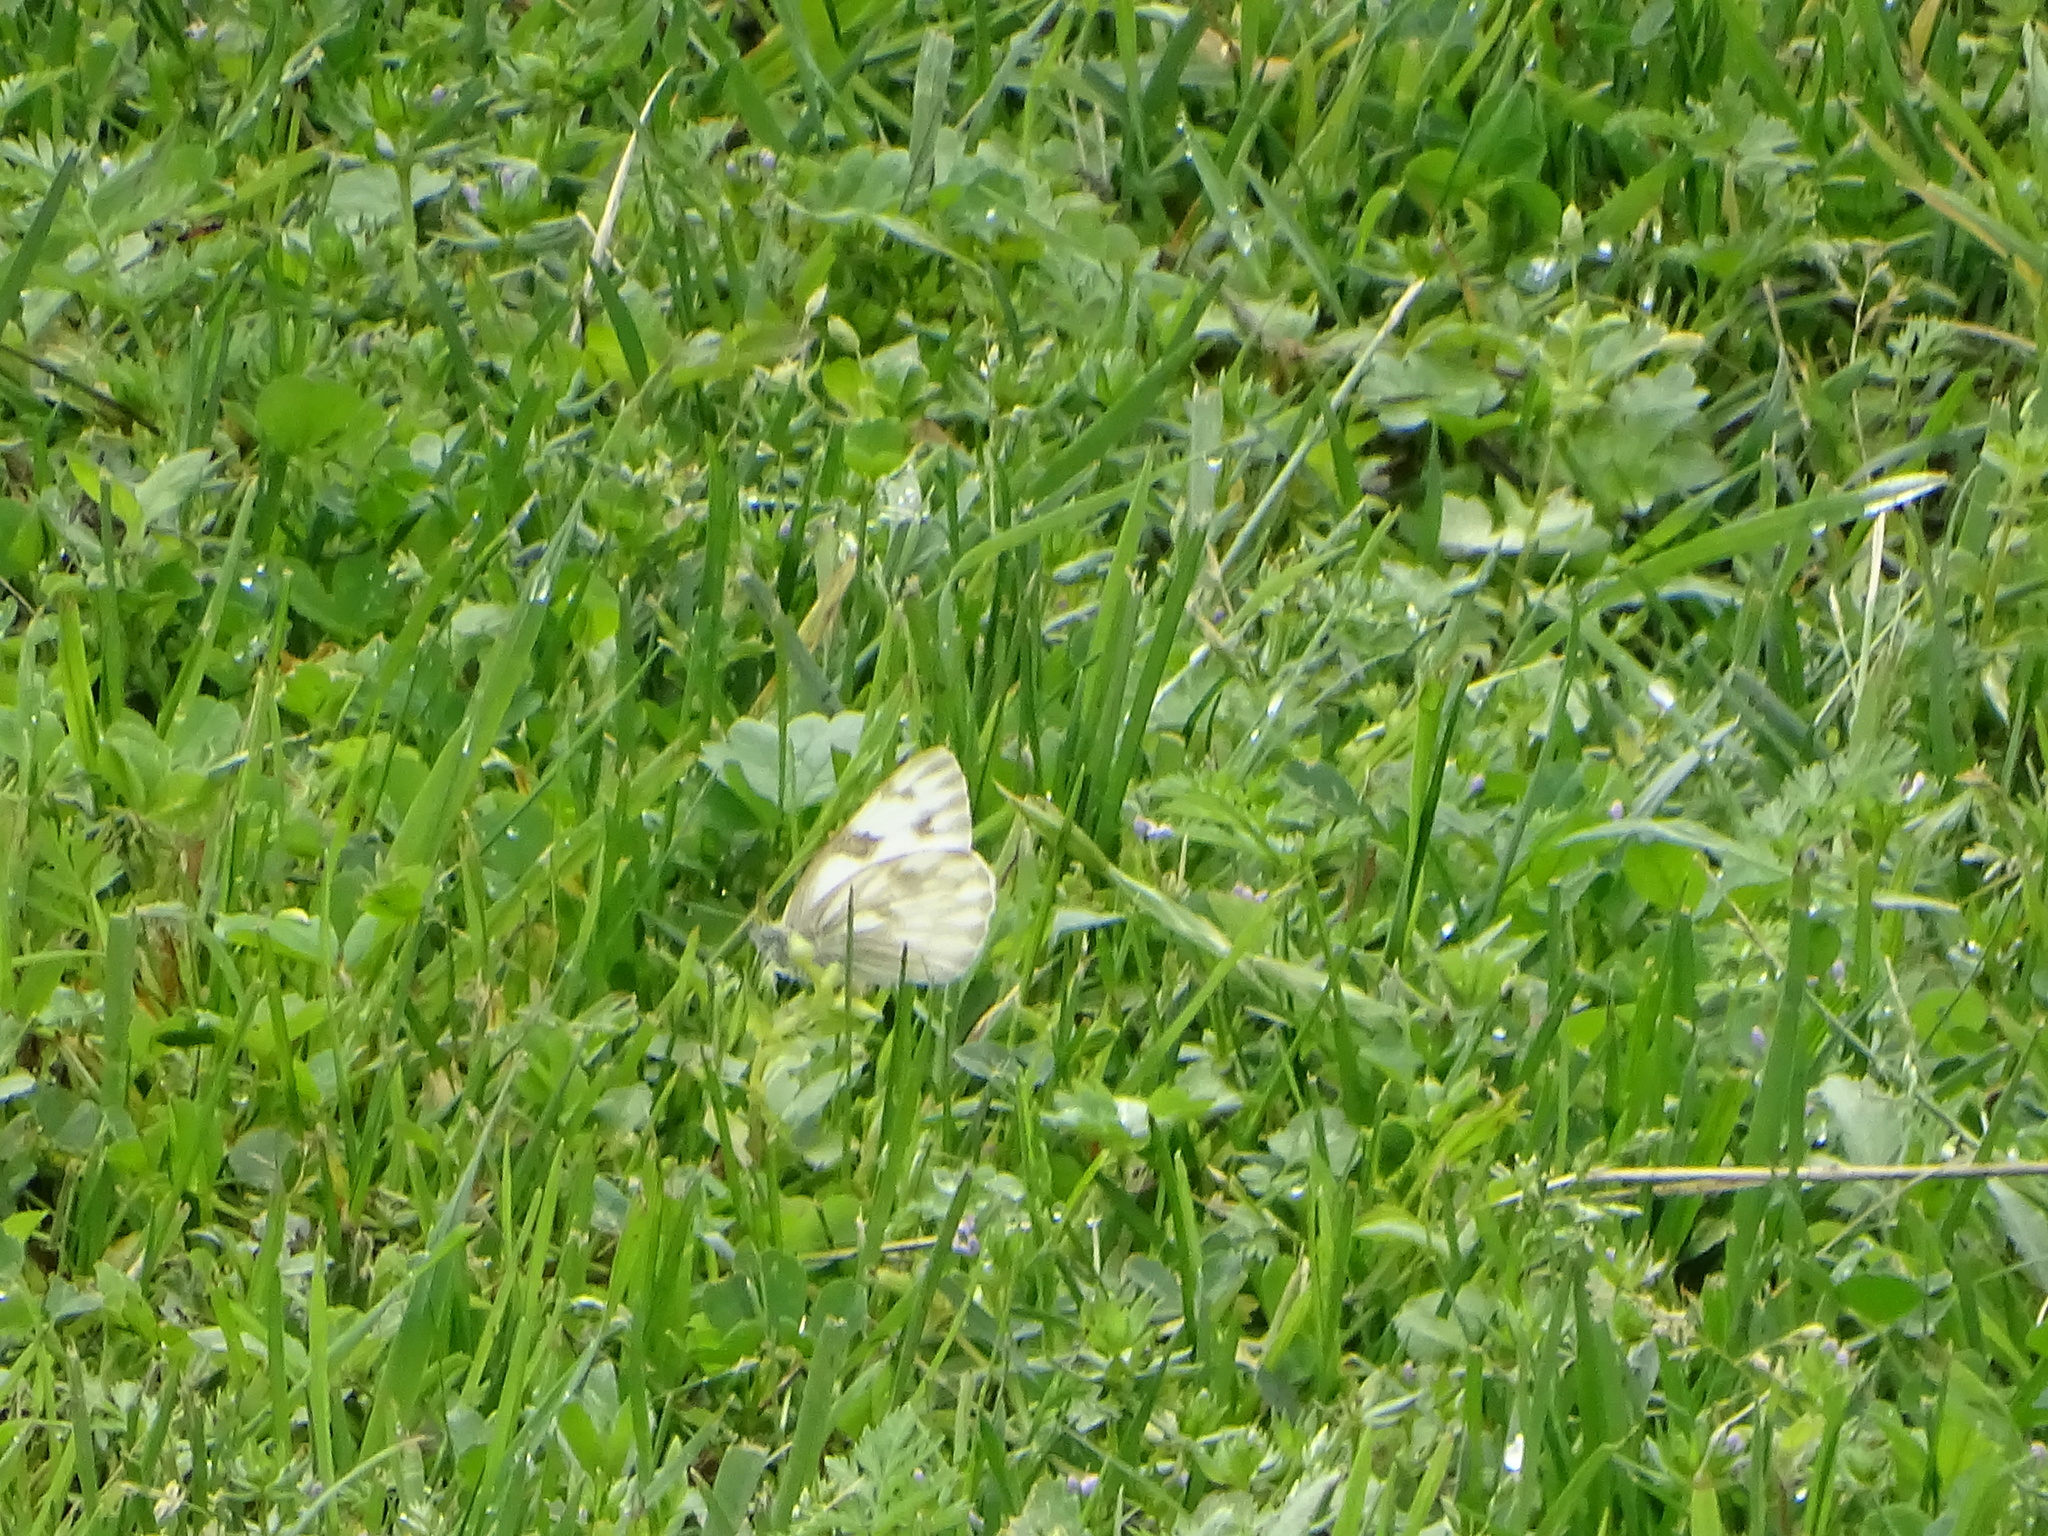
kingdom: Animalia
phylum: Arthropoda
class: Insecta
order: Lepidoptera
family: Pieridae
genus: Pontia
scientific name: Pontia protodice
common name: Checkered white
